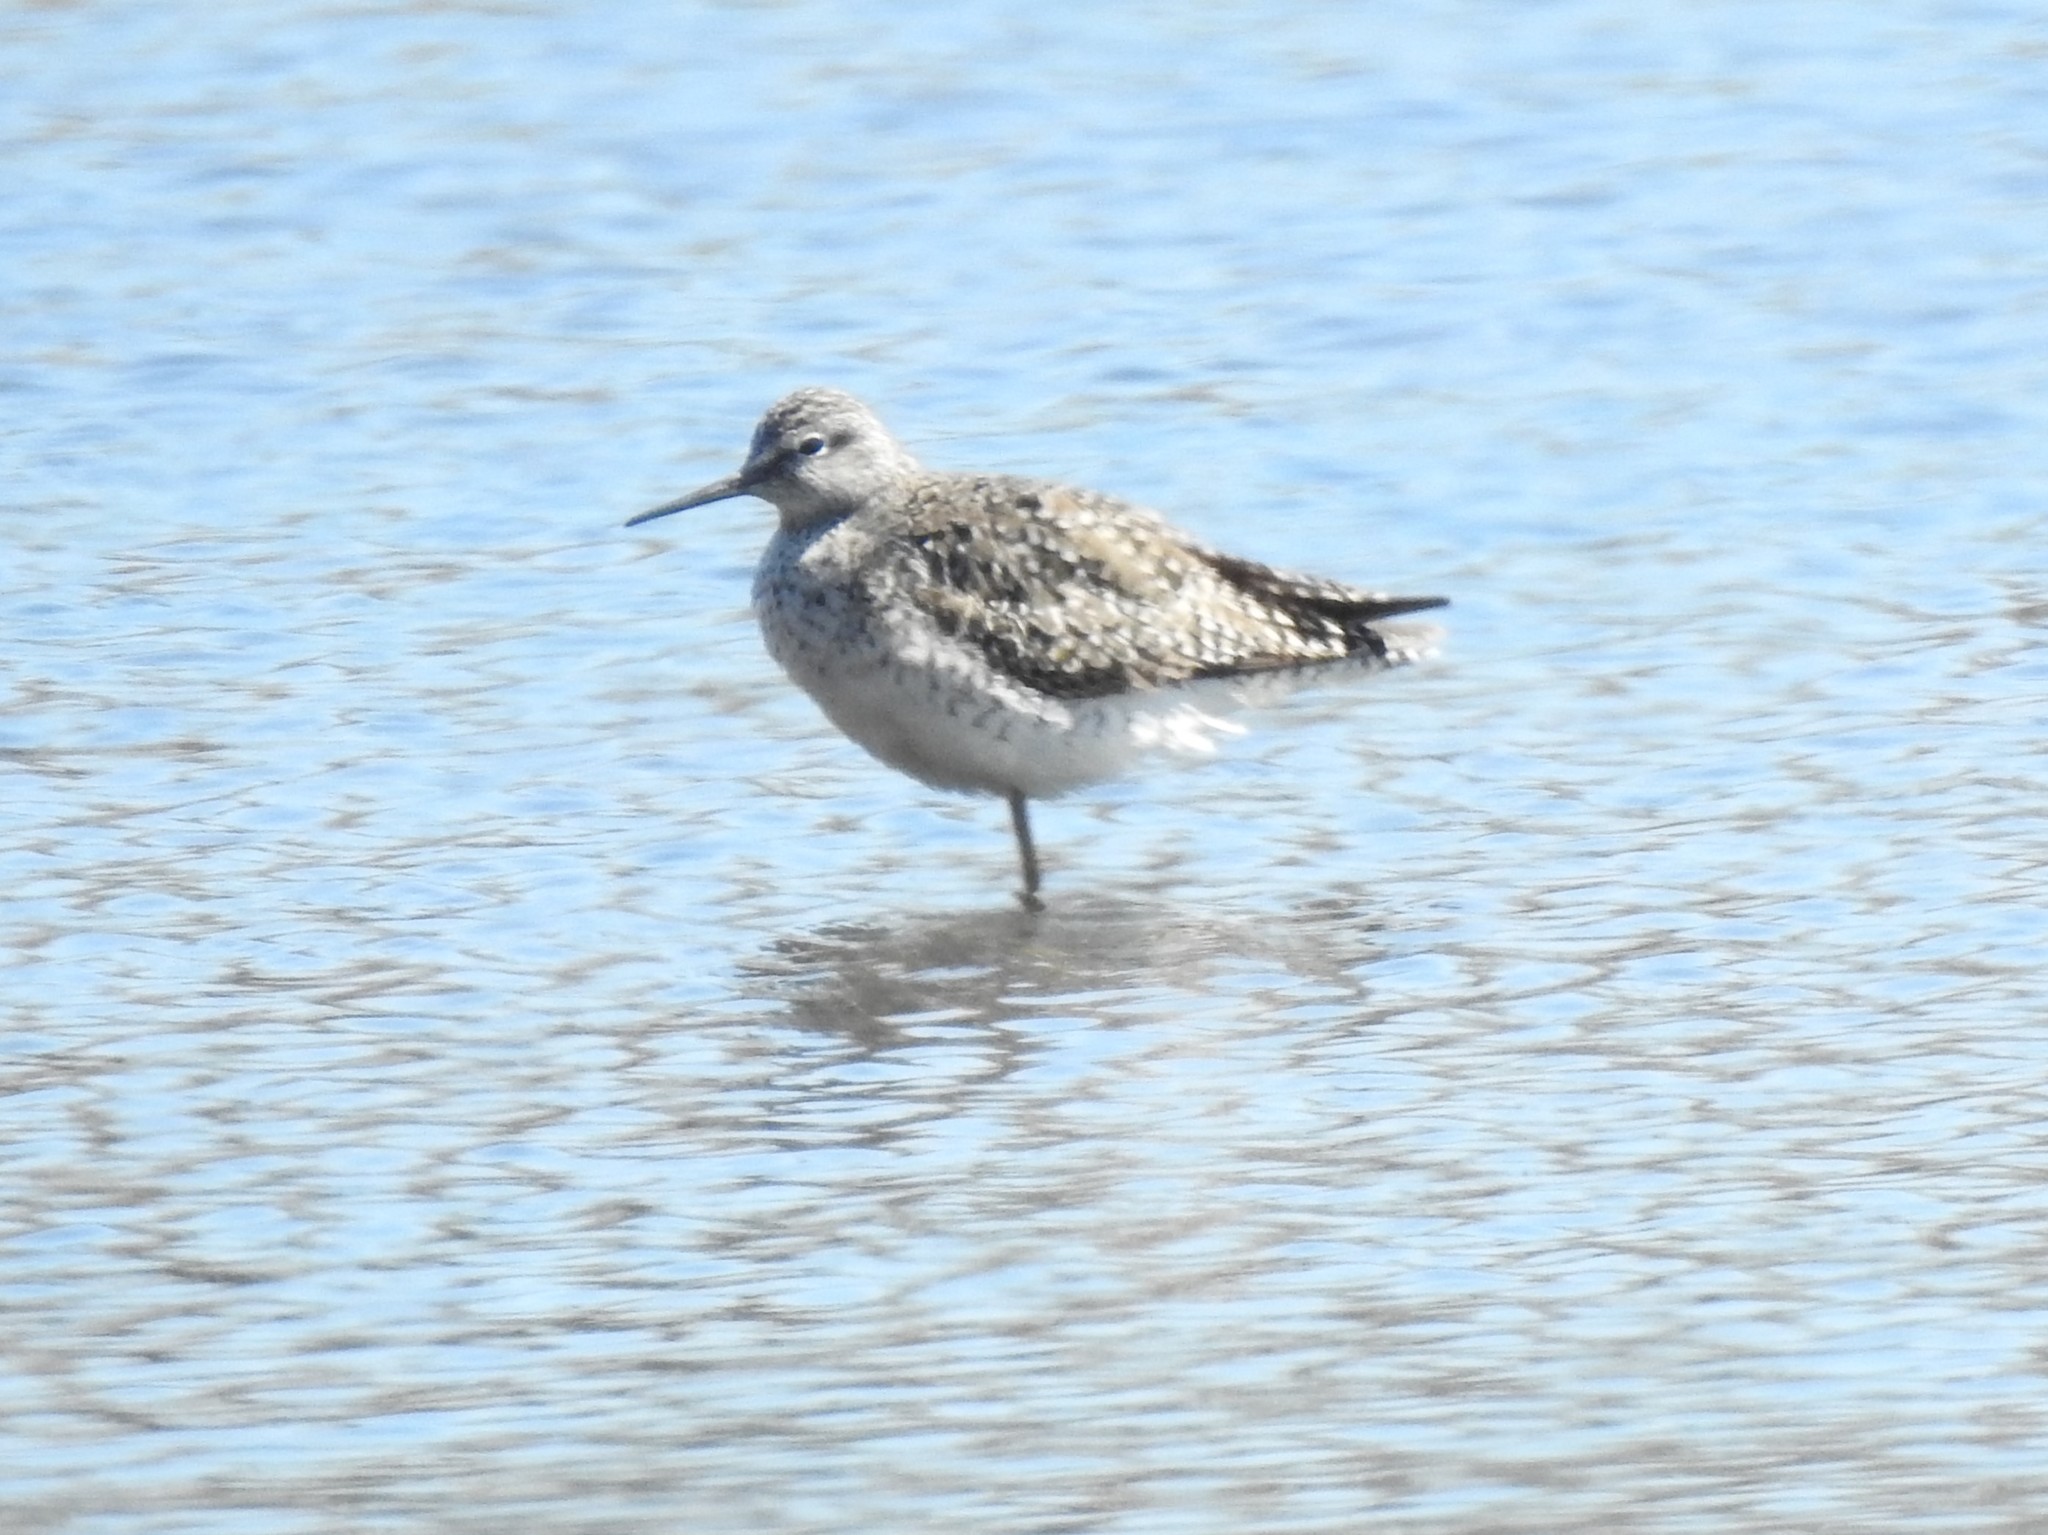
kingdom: Animalia
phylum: Chordata
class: Aves
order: Charadriiformes
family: Scolopacidae
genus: Tringa
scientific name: Tringa melanoleuca
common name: Greater yellowlegs
